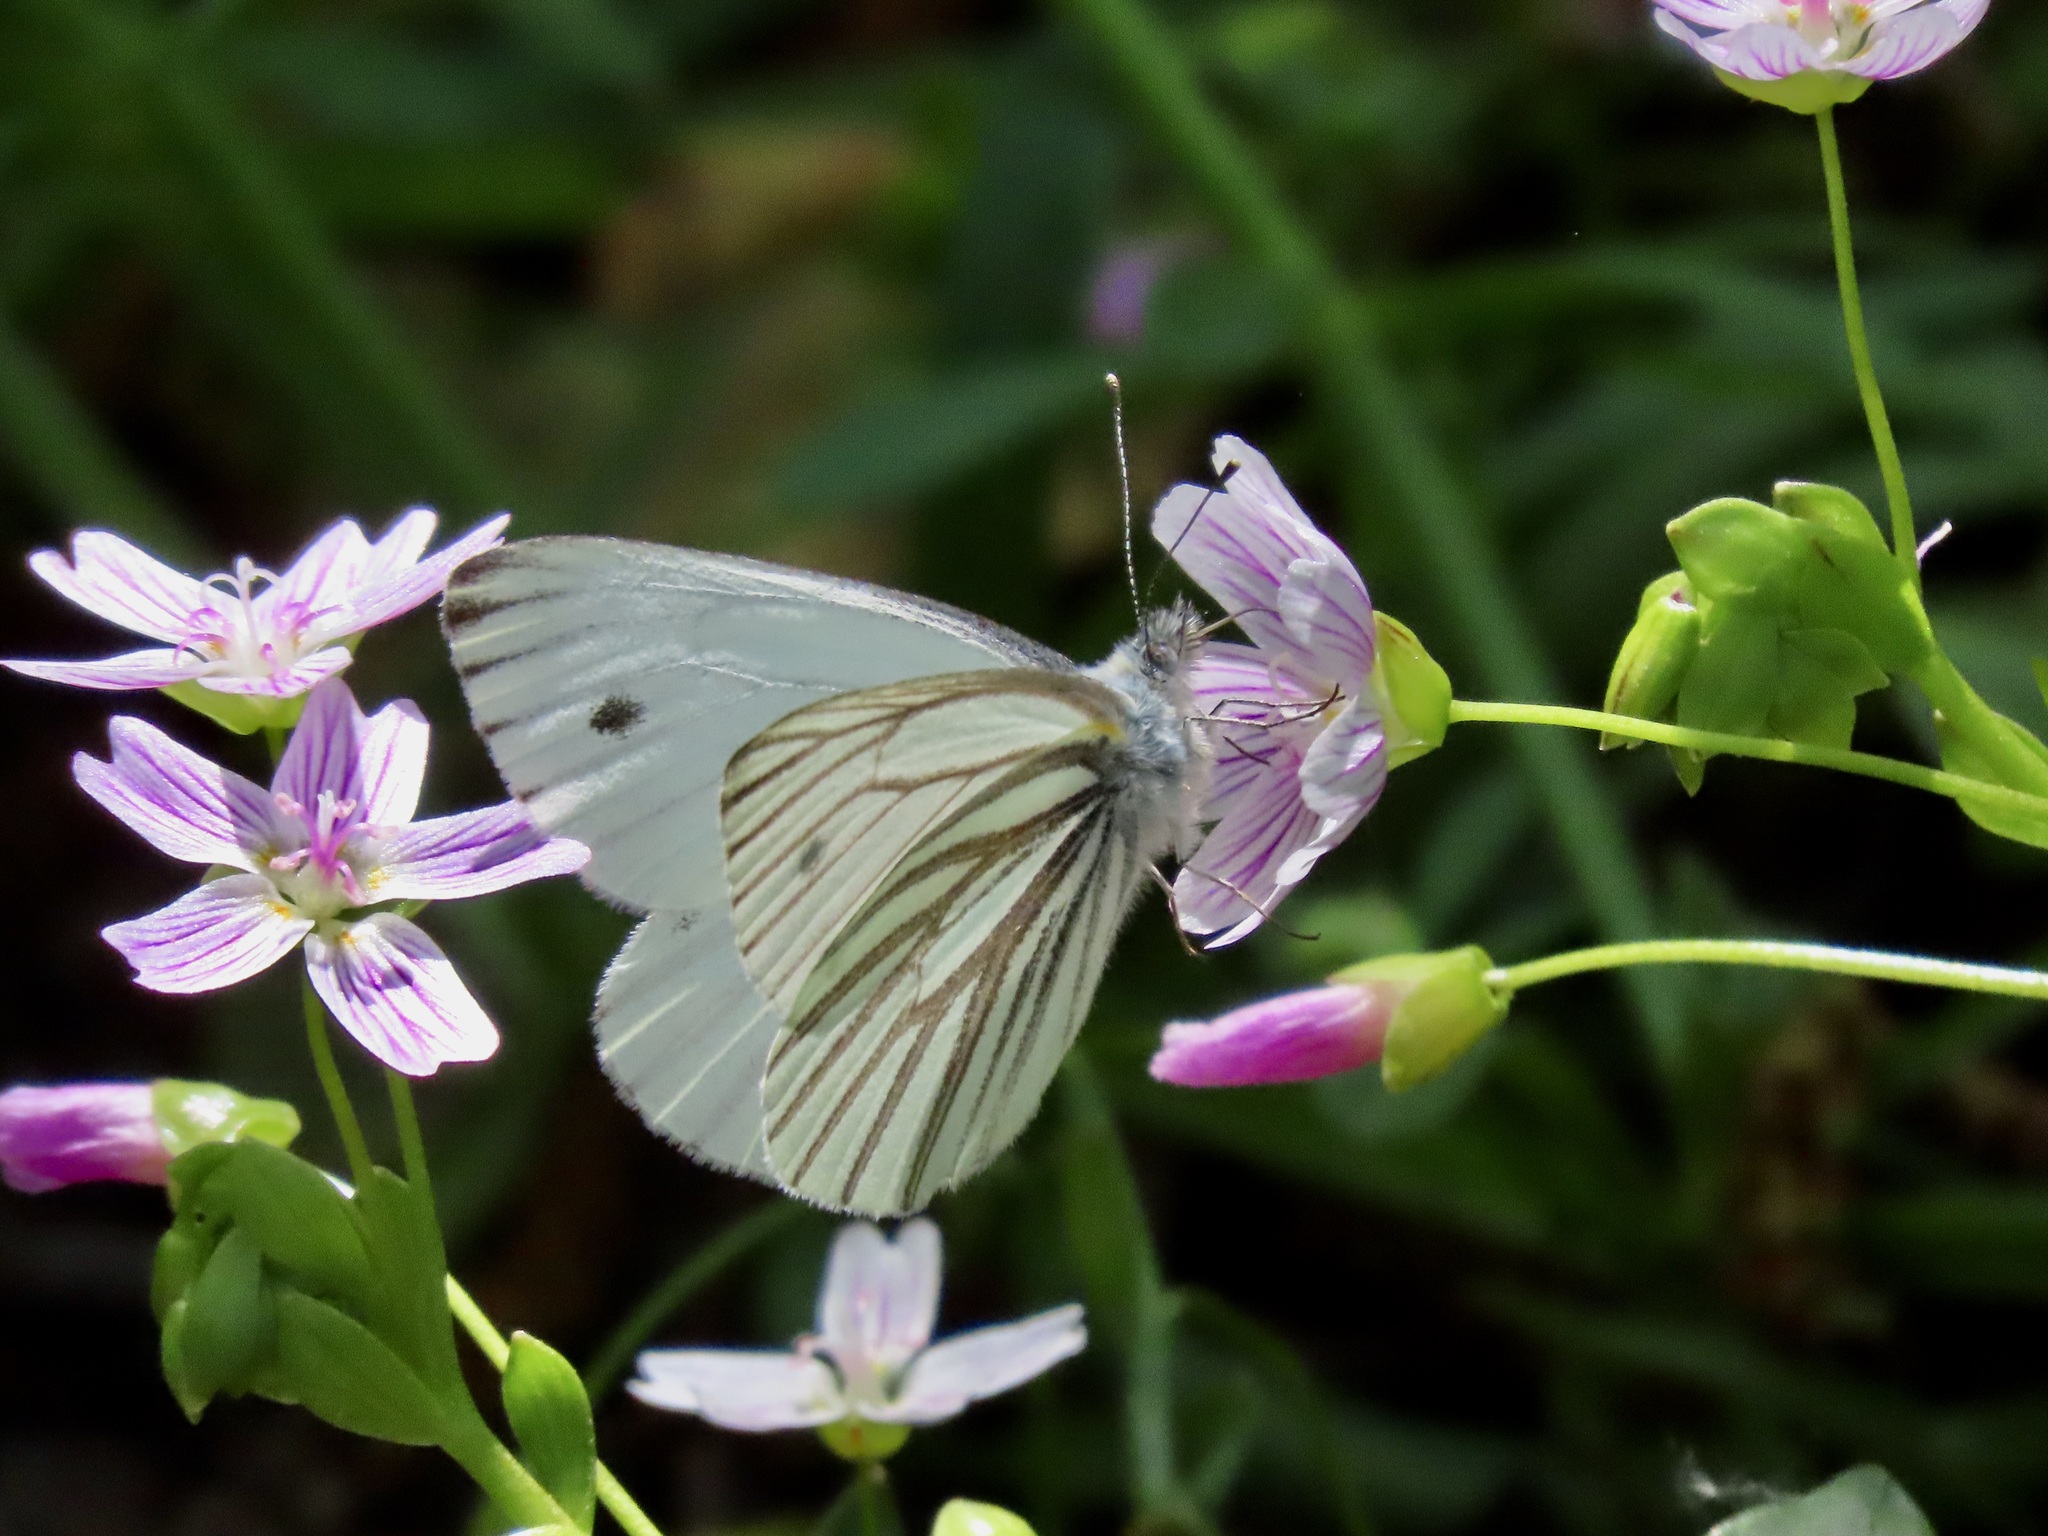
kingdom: Animalia
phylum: Arthropoda
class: Insecta
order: Lepidoptera
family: Pieridae
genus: Pieris
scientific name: Pieris marginalis
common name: Margined white
